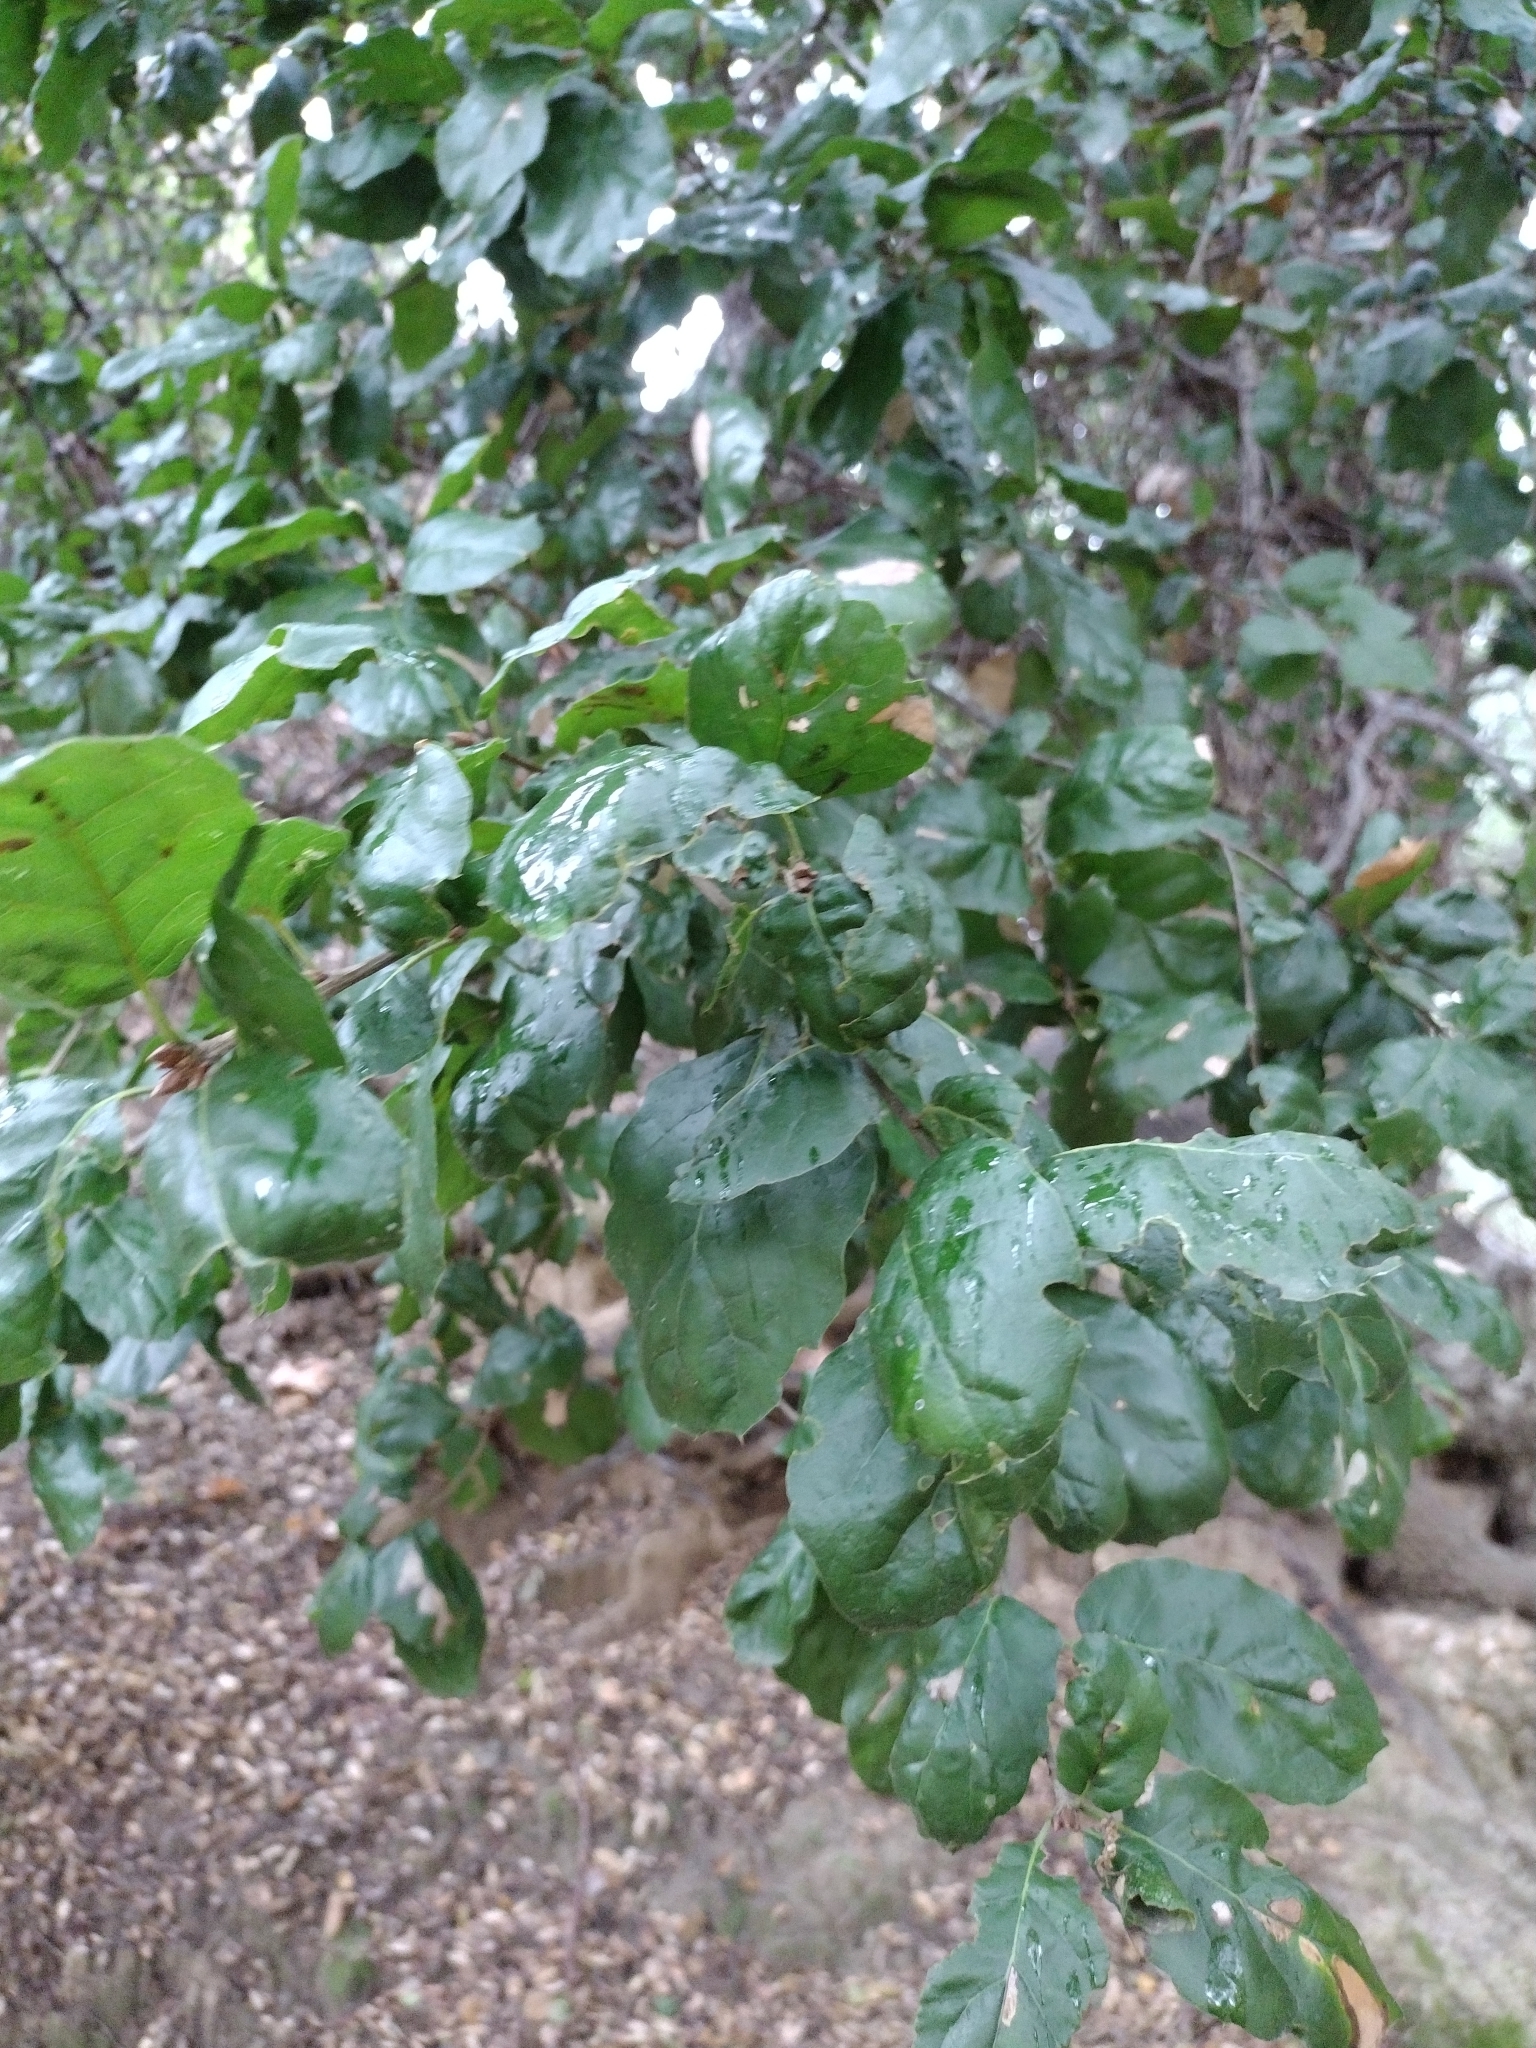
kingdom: Plantae
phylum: Tracheophyta
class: Magnoliopsida
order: Fagales
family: Fagaceae
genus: Quercus
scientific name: Quercus agrifolia
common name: California live oak
